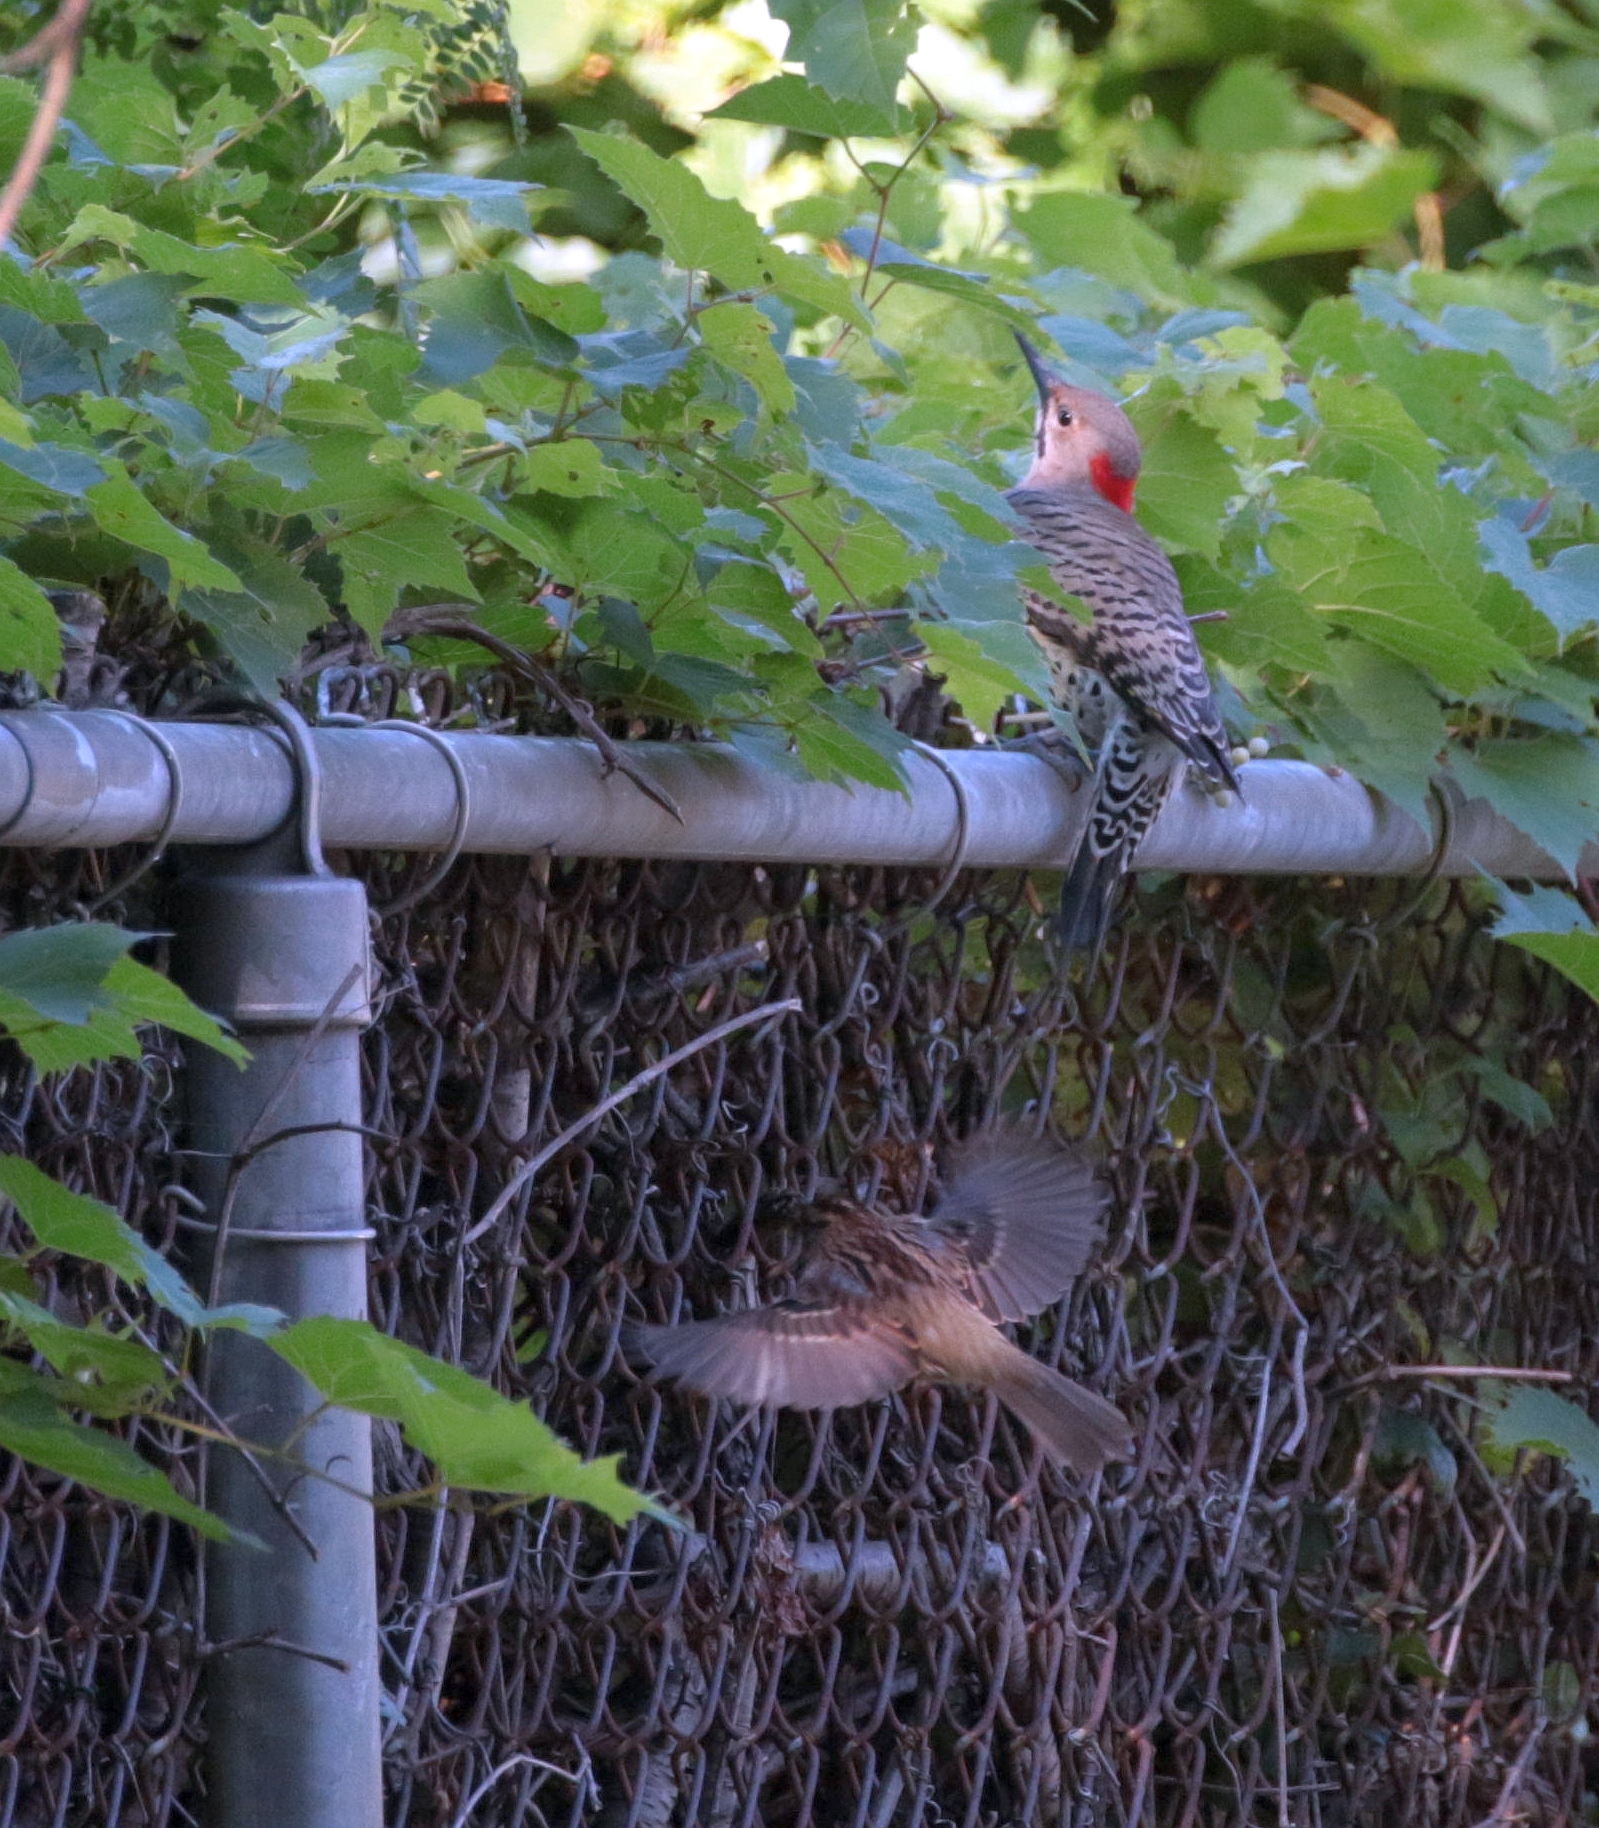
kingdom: Animalia
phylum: Chordata
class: Aves
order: Piciformes
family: Picidae
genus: Colaptes
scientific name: Colaptes auratus
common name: Northern flicker
